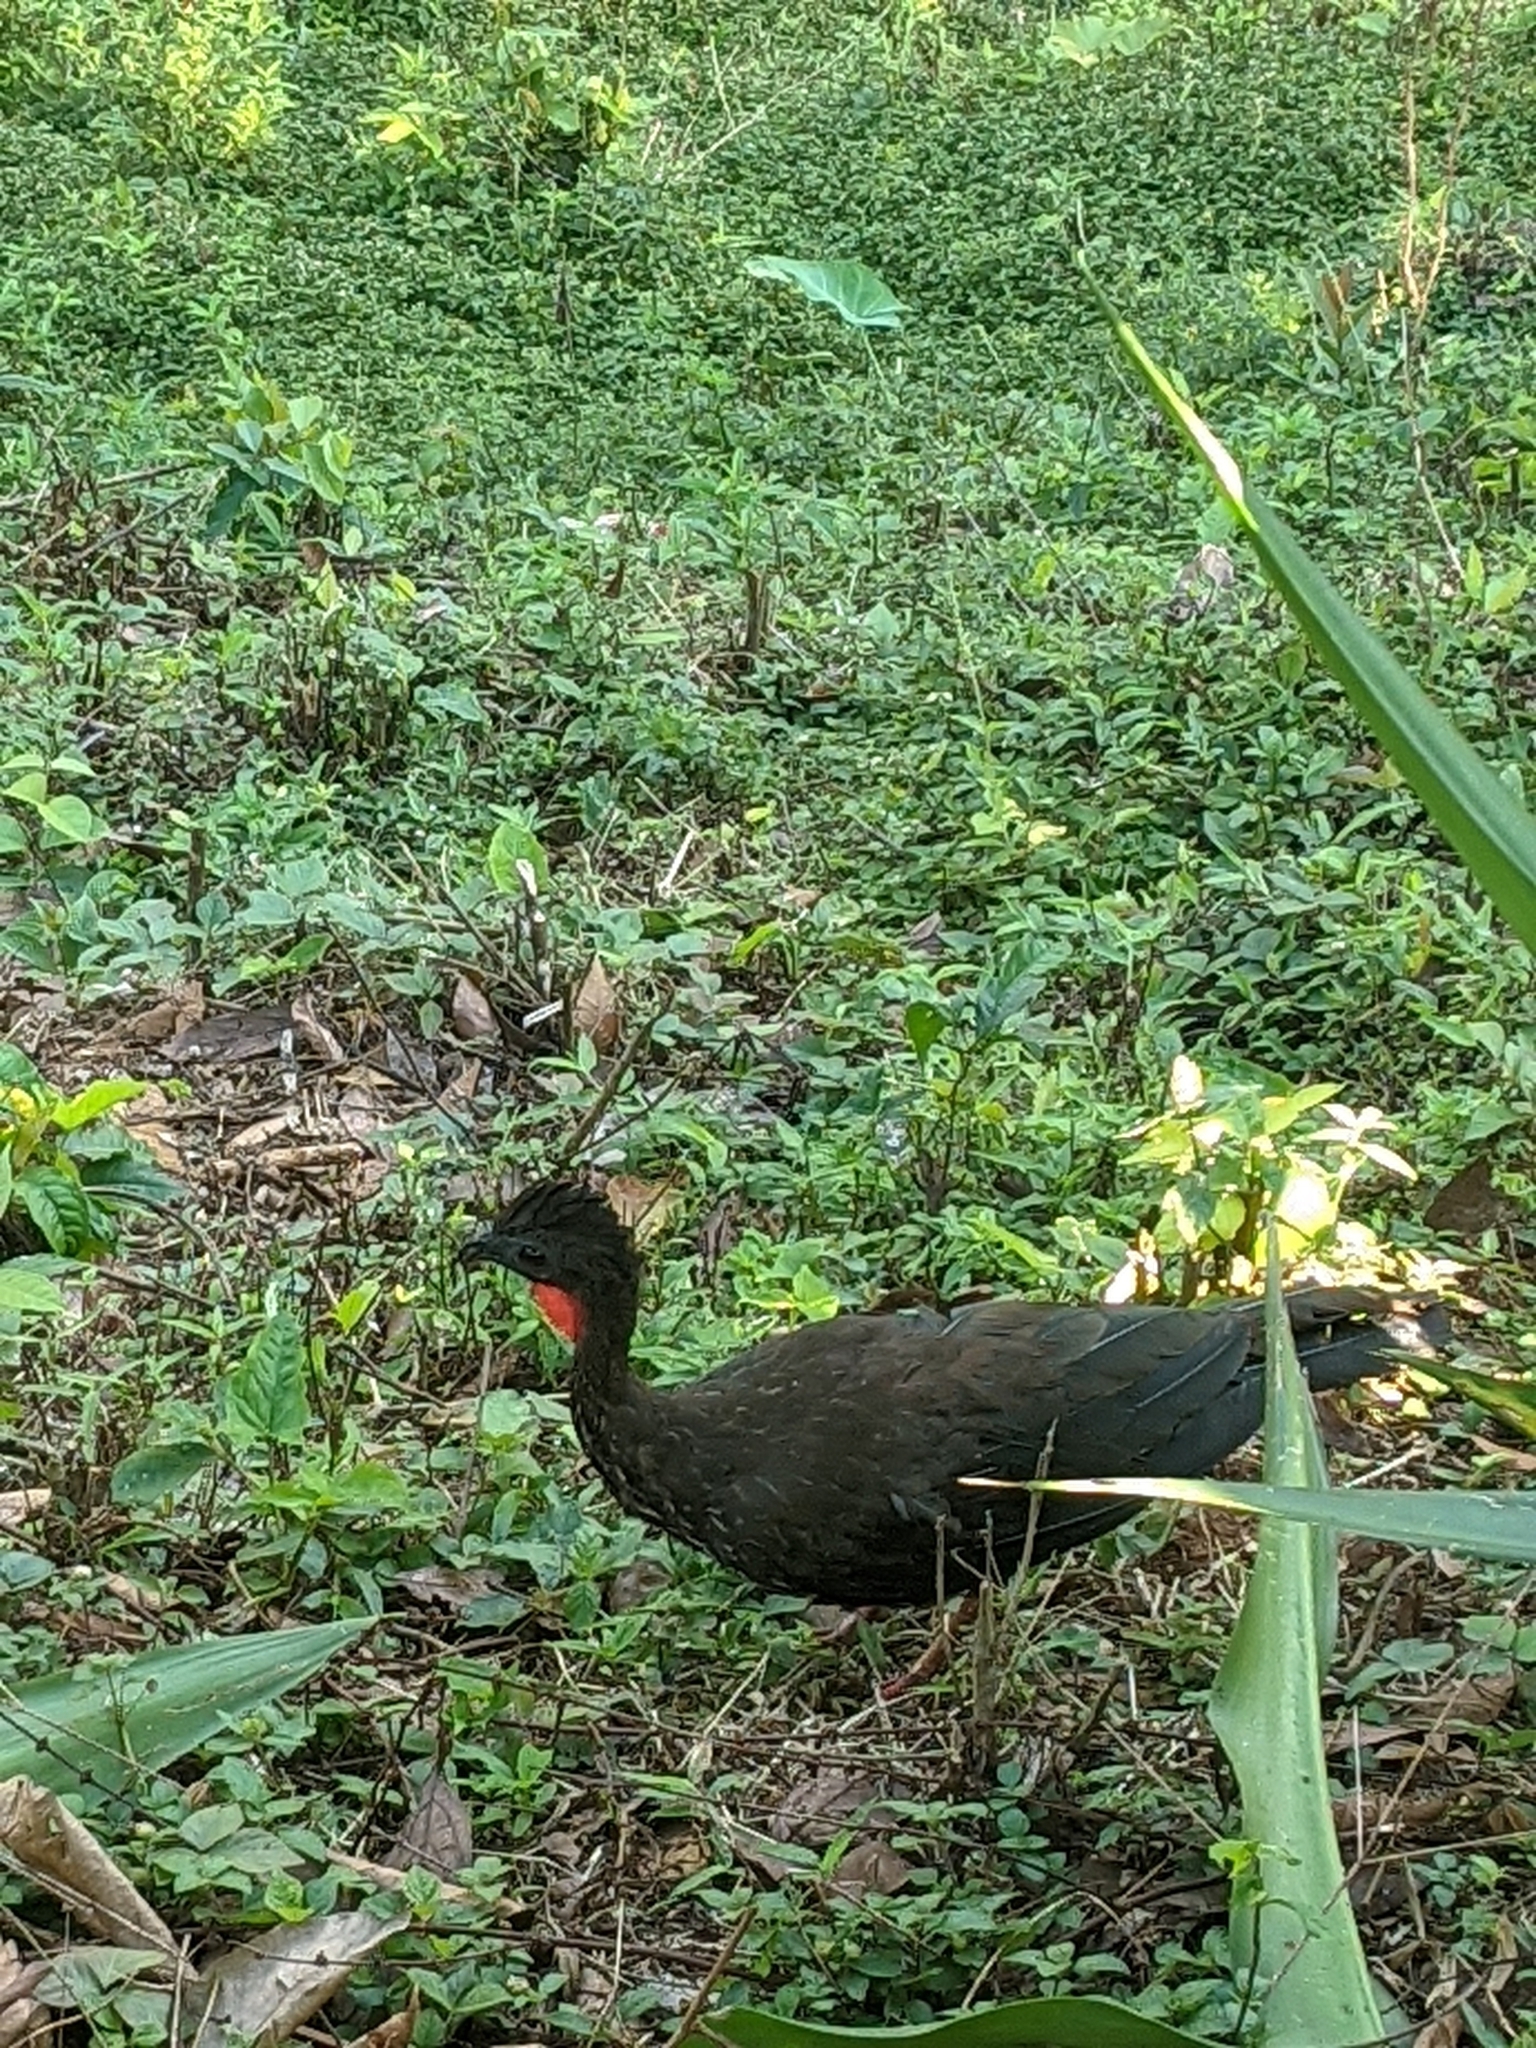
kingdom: Animalia
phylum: Chordata
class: Aves
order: Galliformes
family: Cracidae
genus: Penelope
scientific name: Penelope purpurascens
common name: Crested guan
